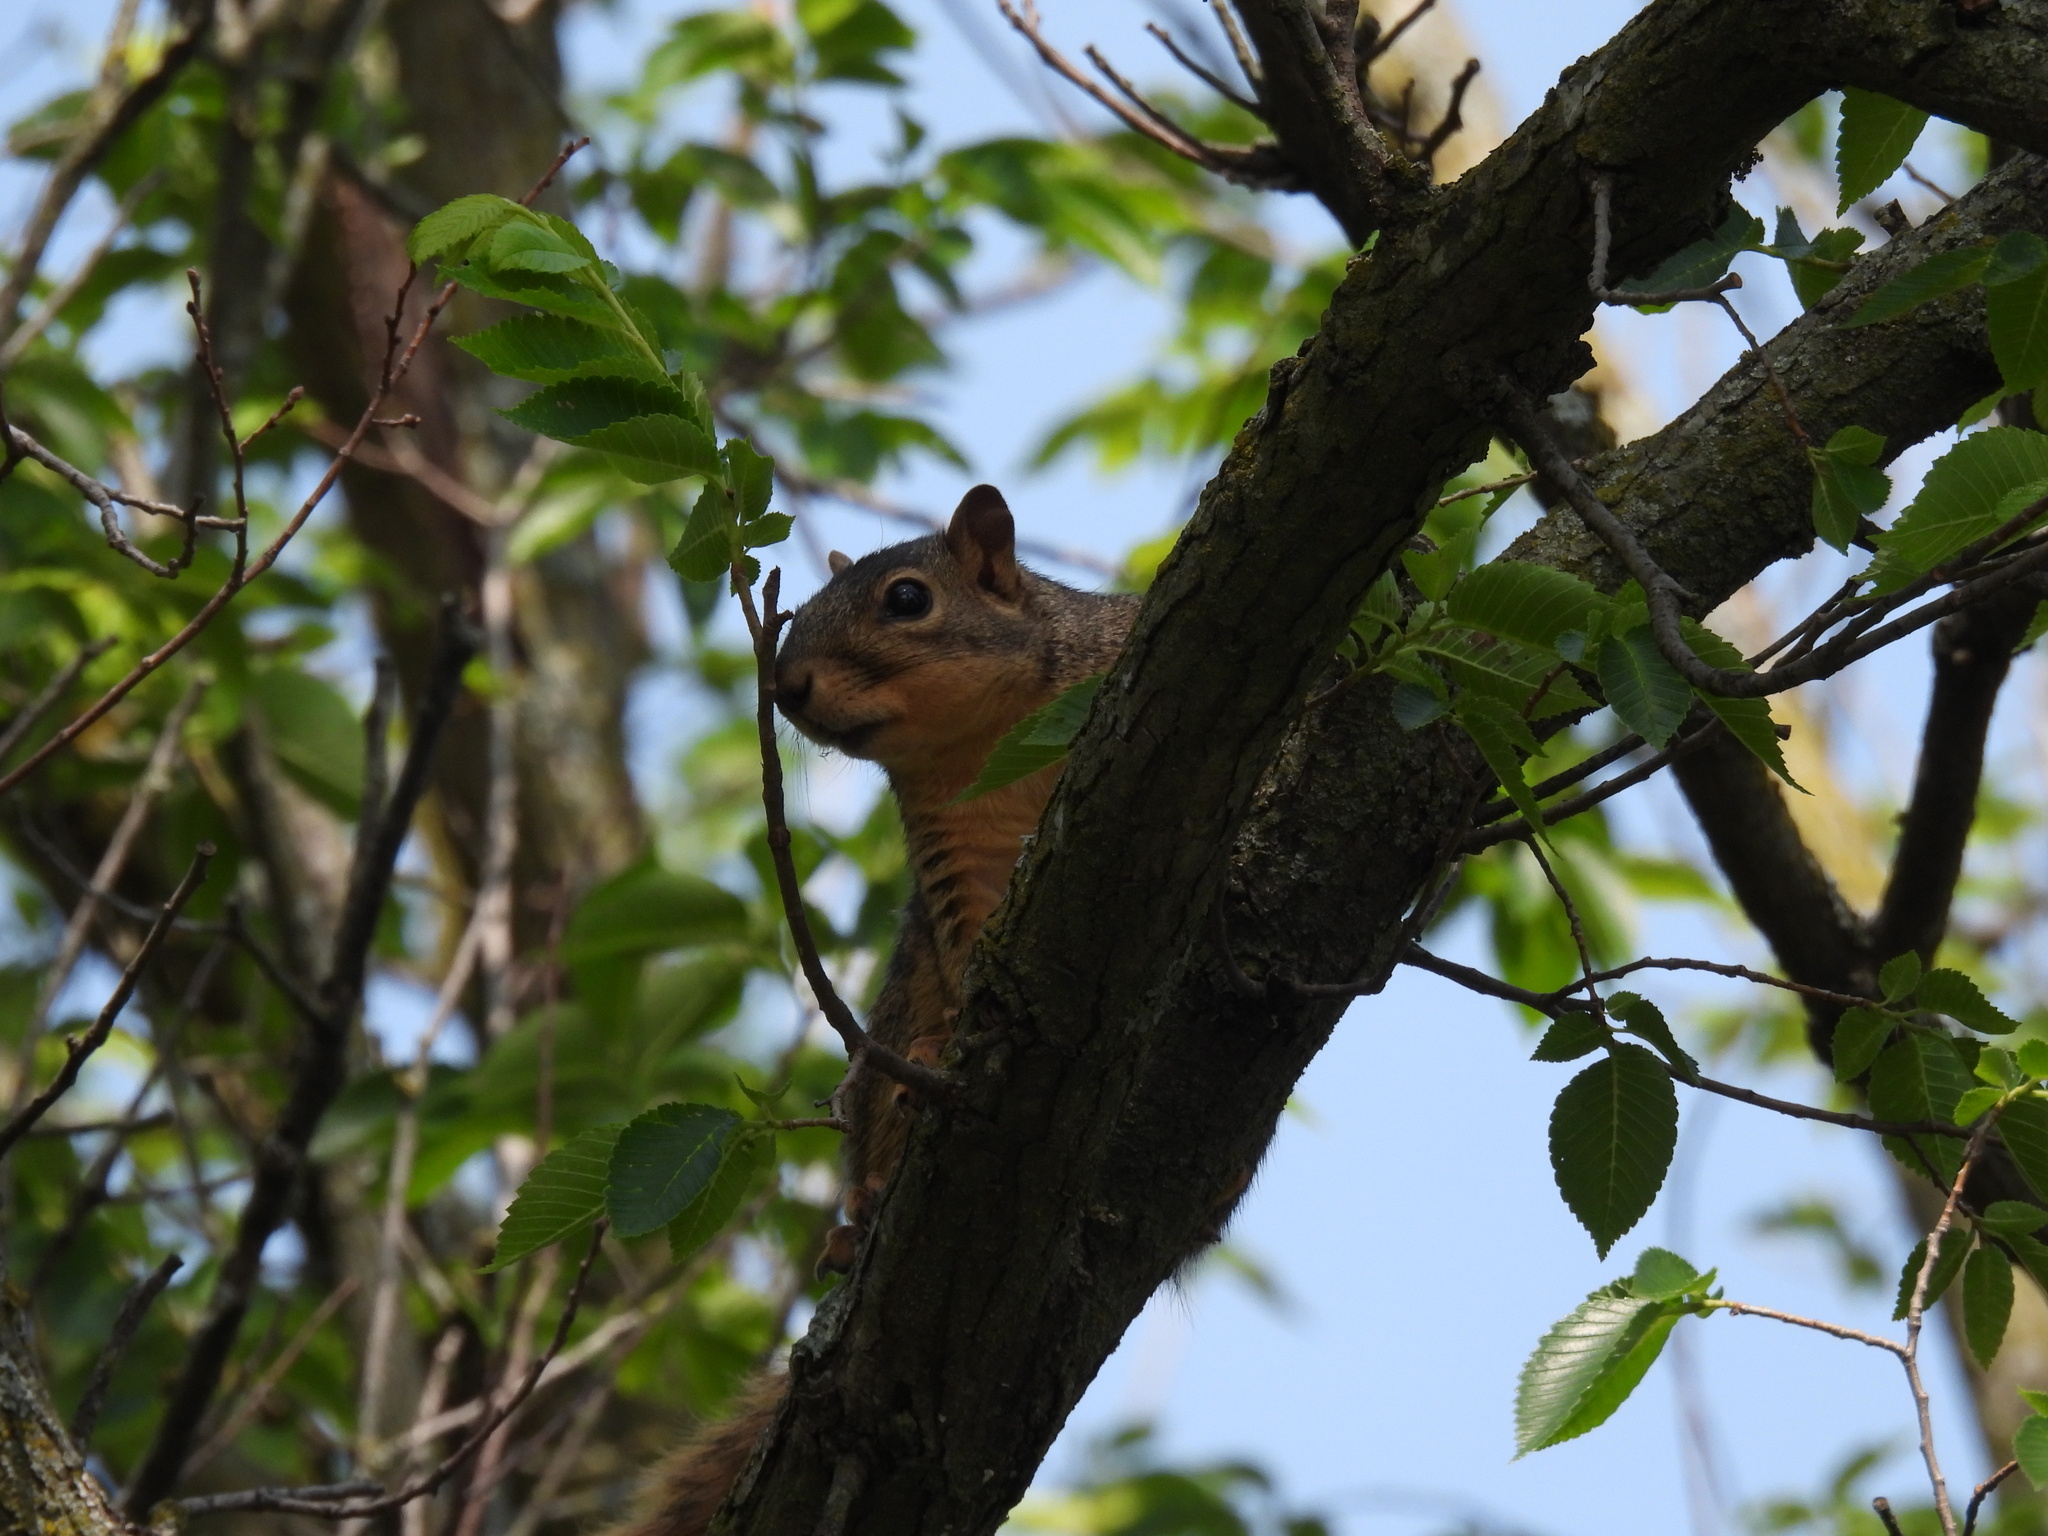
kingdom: Animalia
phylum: Chordata
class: Mammalia
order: Rodentia
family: Sciuridae
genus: Sciurus
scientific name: Sciurus niger
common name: Fox squirrel
